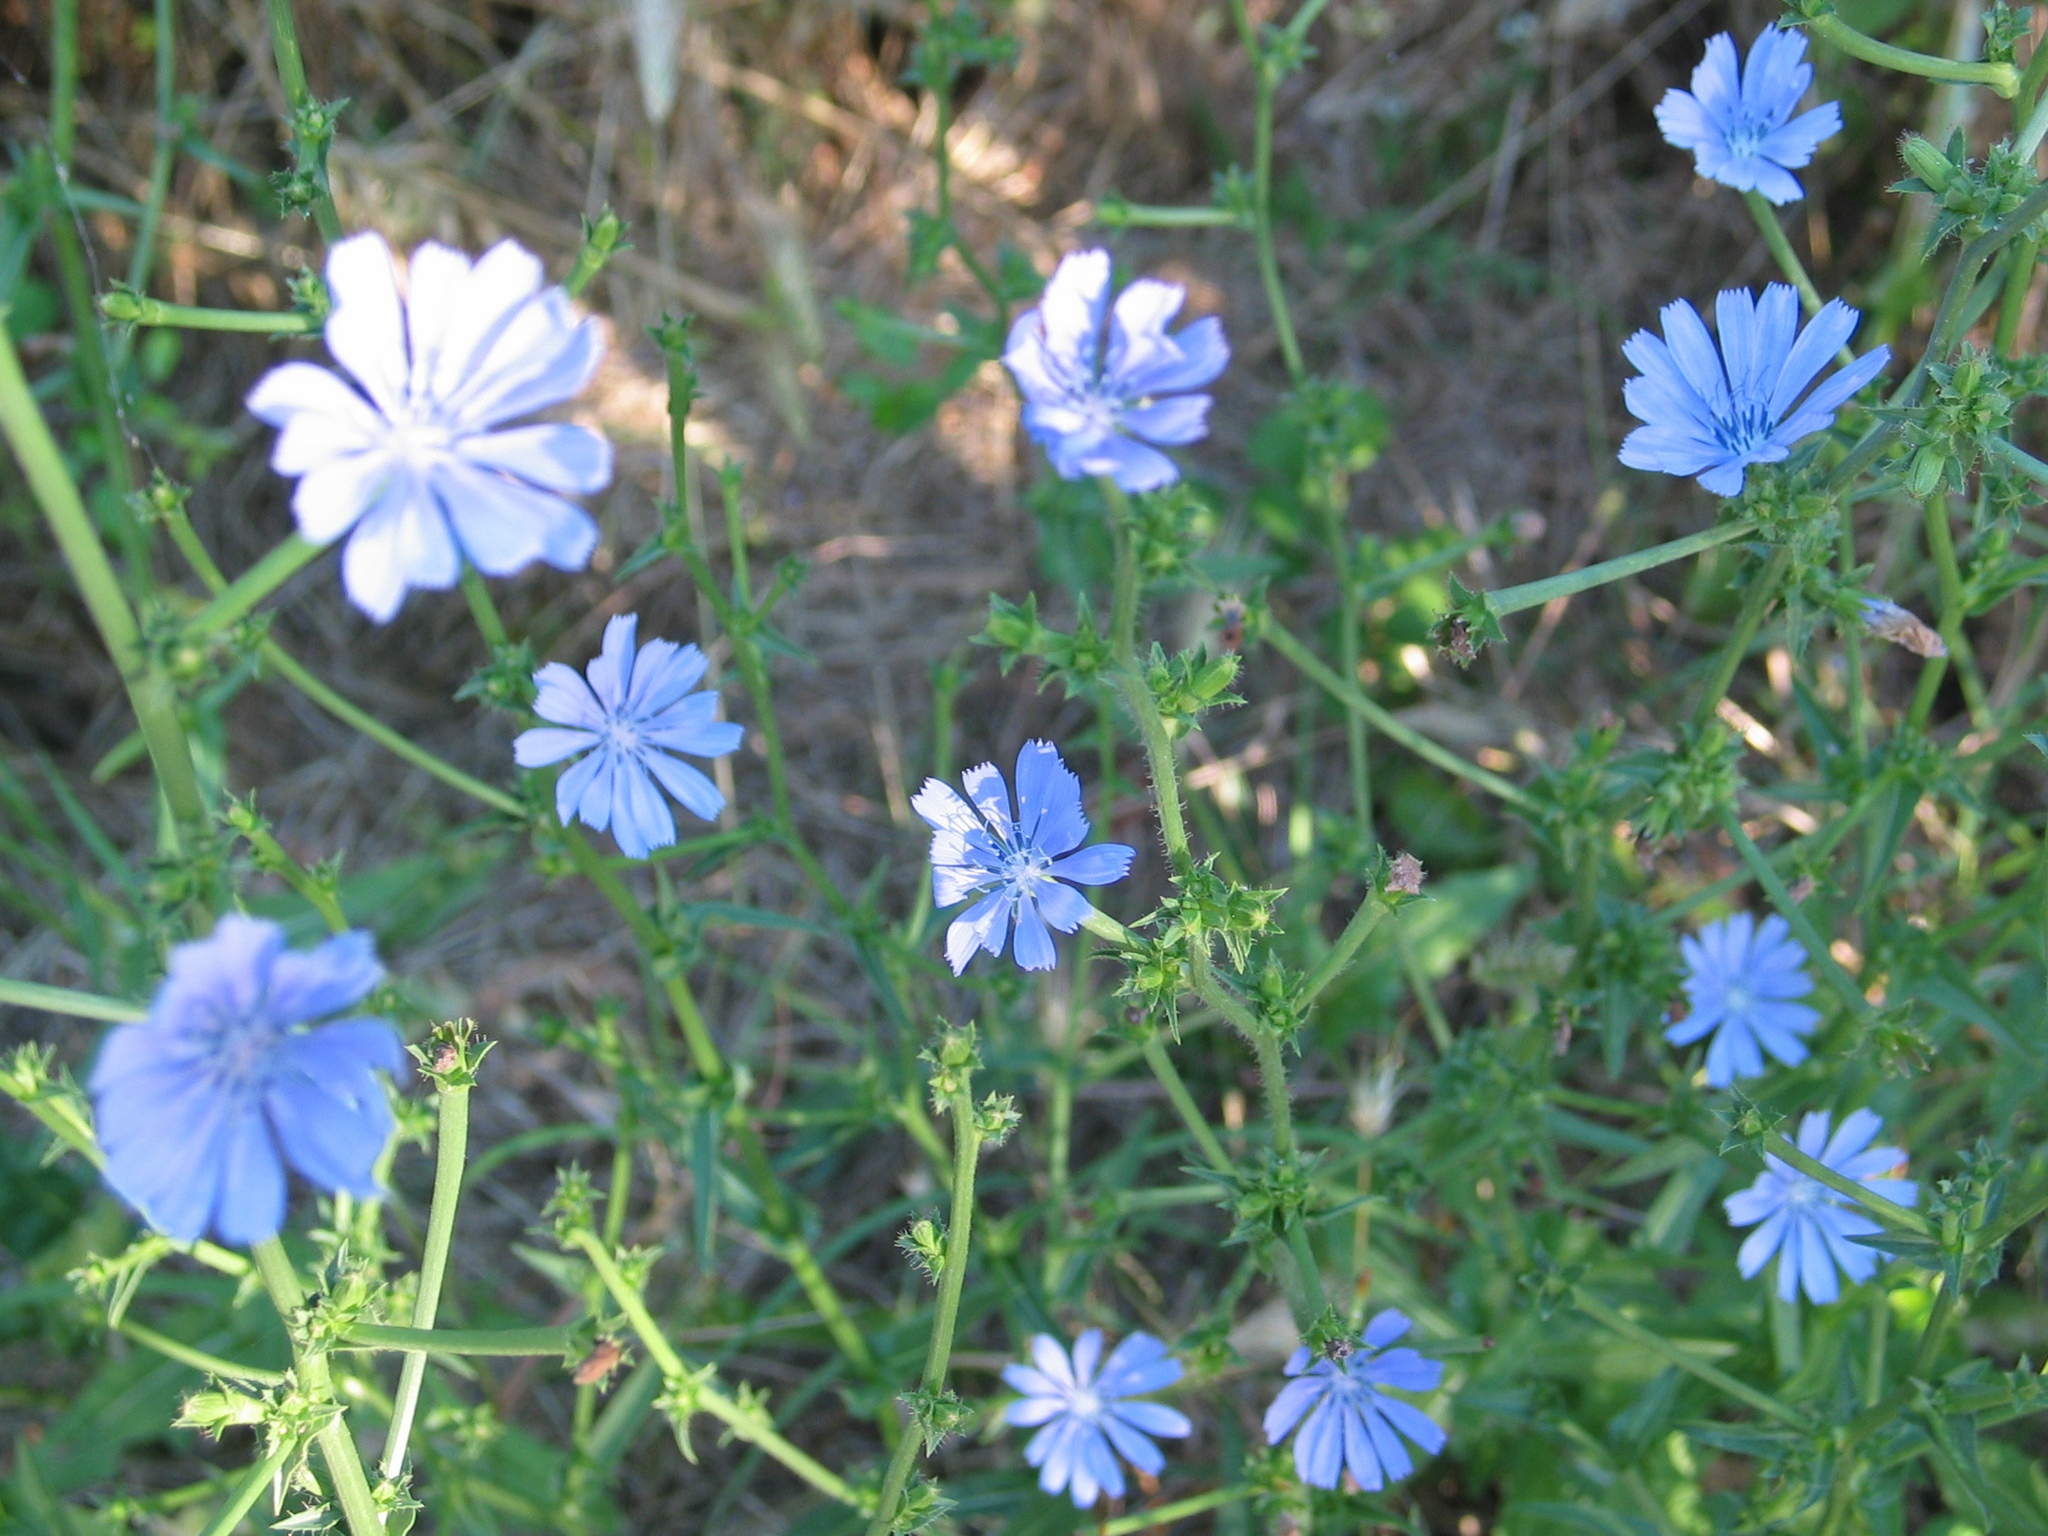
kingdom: Plantae
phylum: Tracheophyta
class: Magnoliopsida
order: Asterales
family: Asteraceae
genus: Cichorium
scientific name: Cichorium intybus
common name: Chicory
